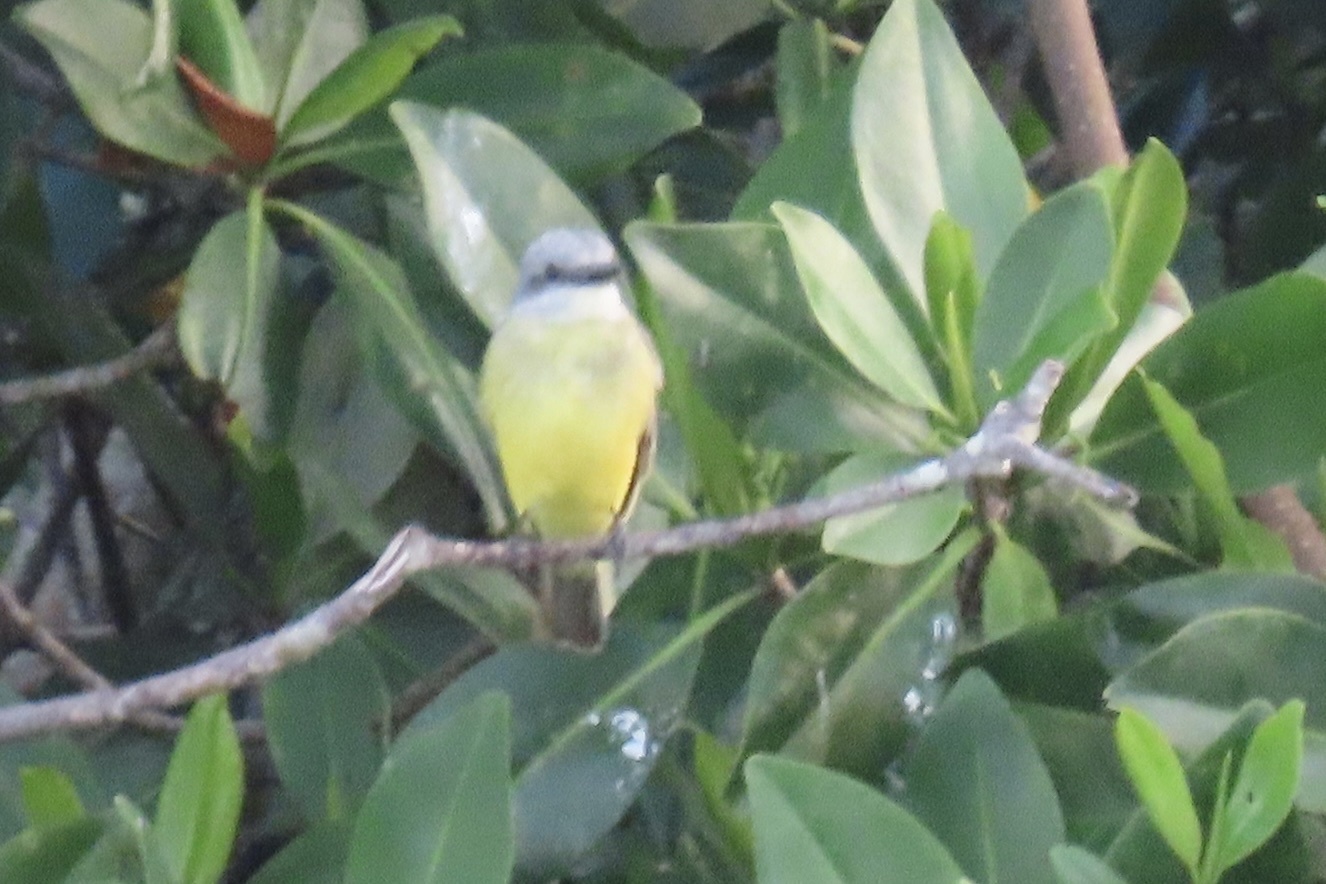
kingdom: Animalia
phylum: Chordata
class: Aves
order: Passeriformes
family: Tyrannidae
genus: Tyrannus
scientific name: Tyrannus melancholicus
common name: Tropical kingbird
